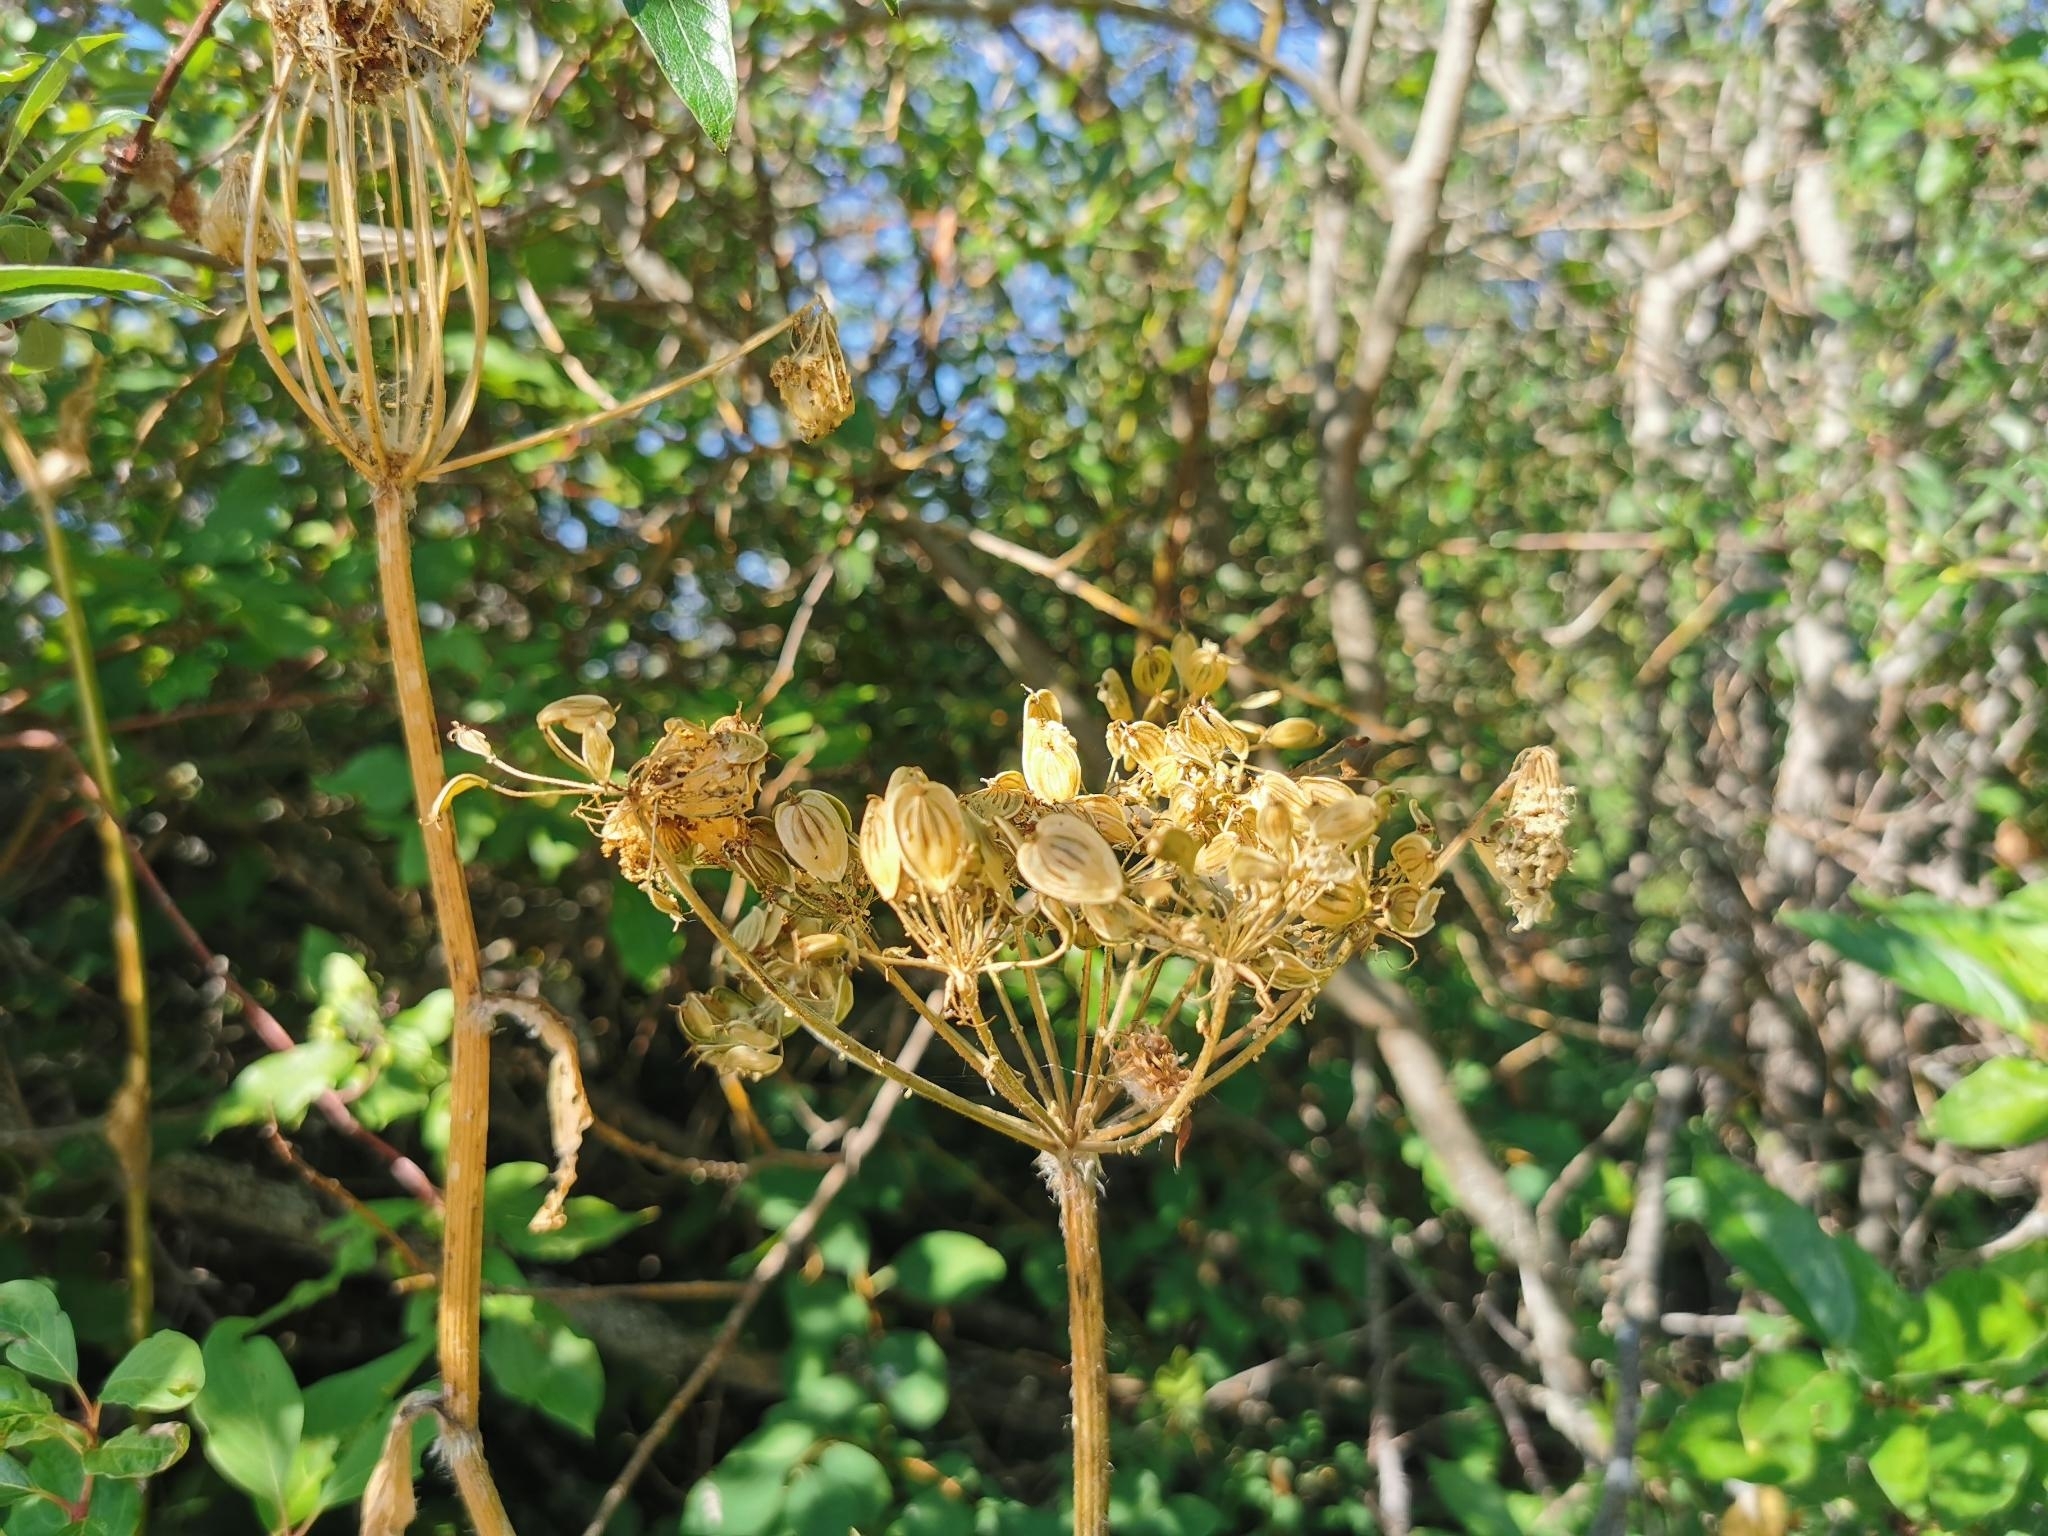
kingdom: Plantae
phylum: Tracheophyta
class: Magnoliopsida
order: Apiales
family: Apiaceae
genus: Heracleum
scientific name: Heracleum maximum
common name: American cow parsnip
